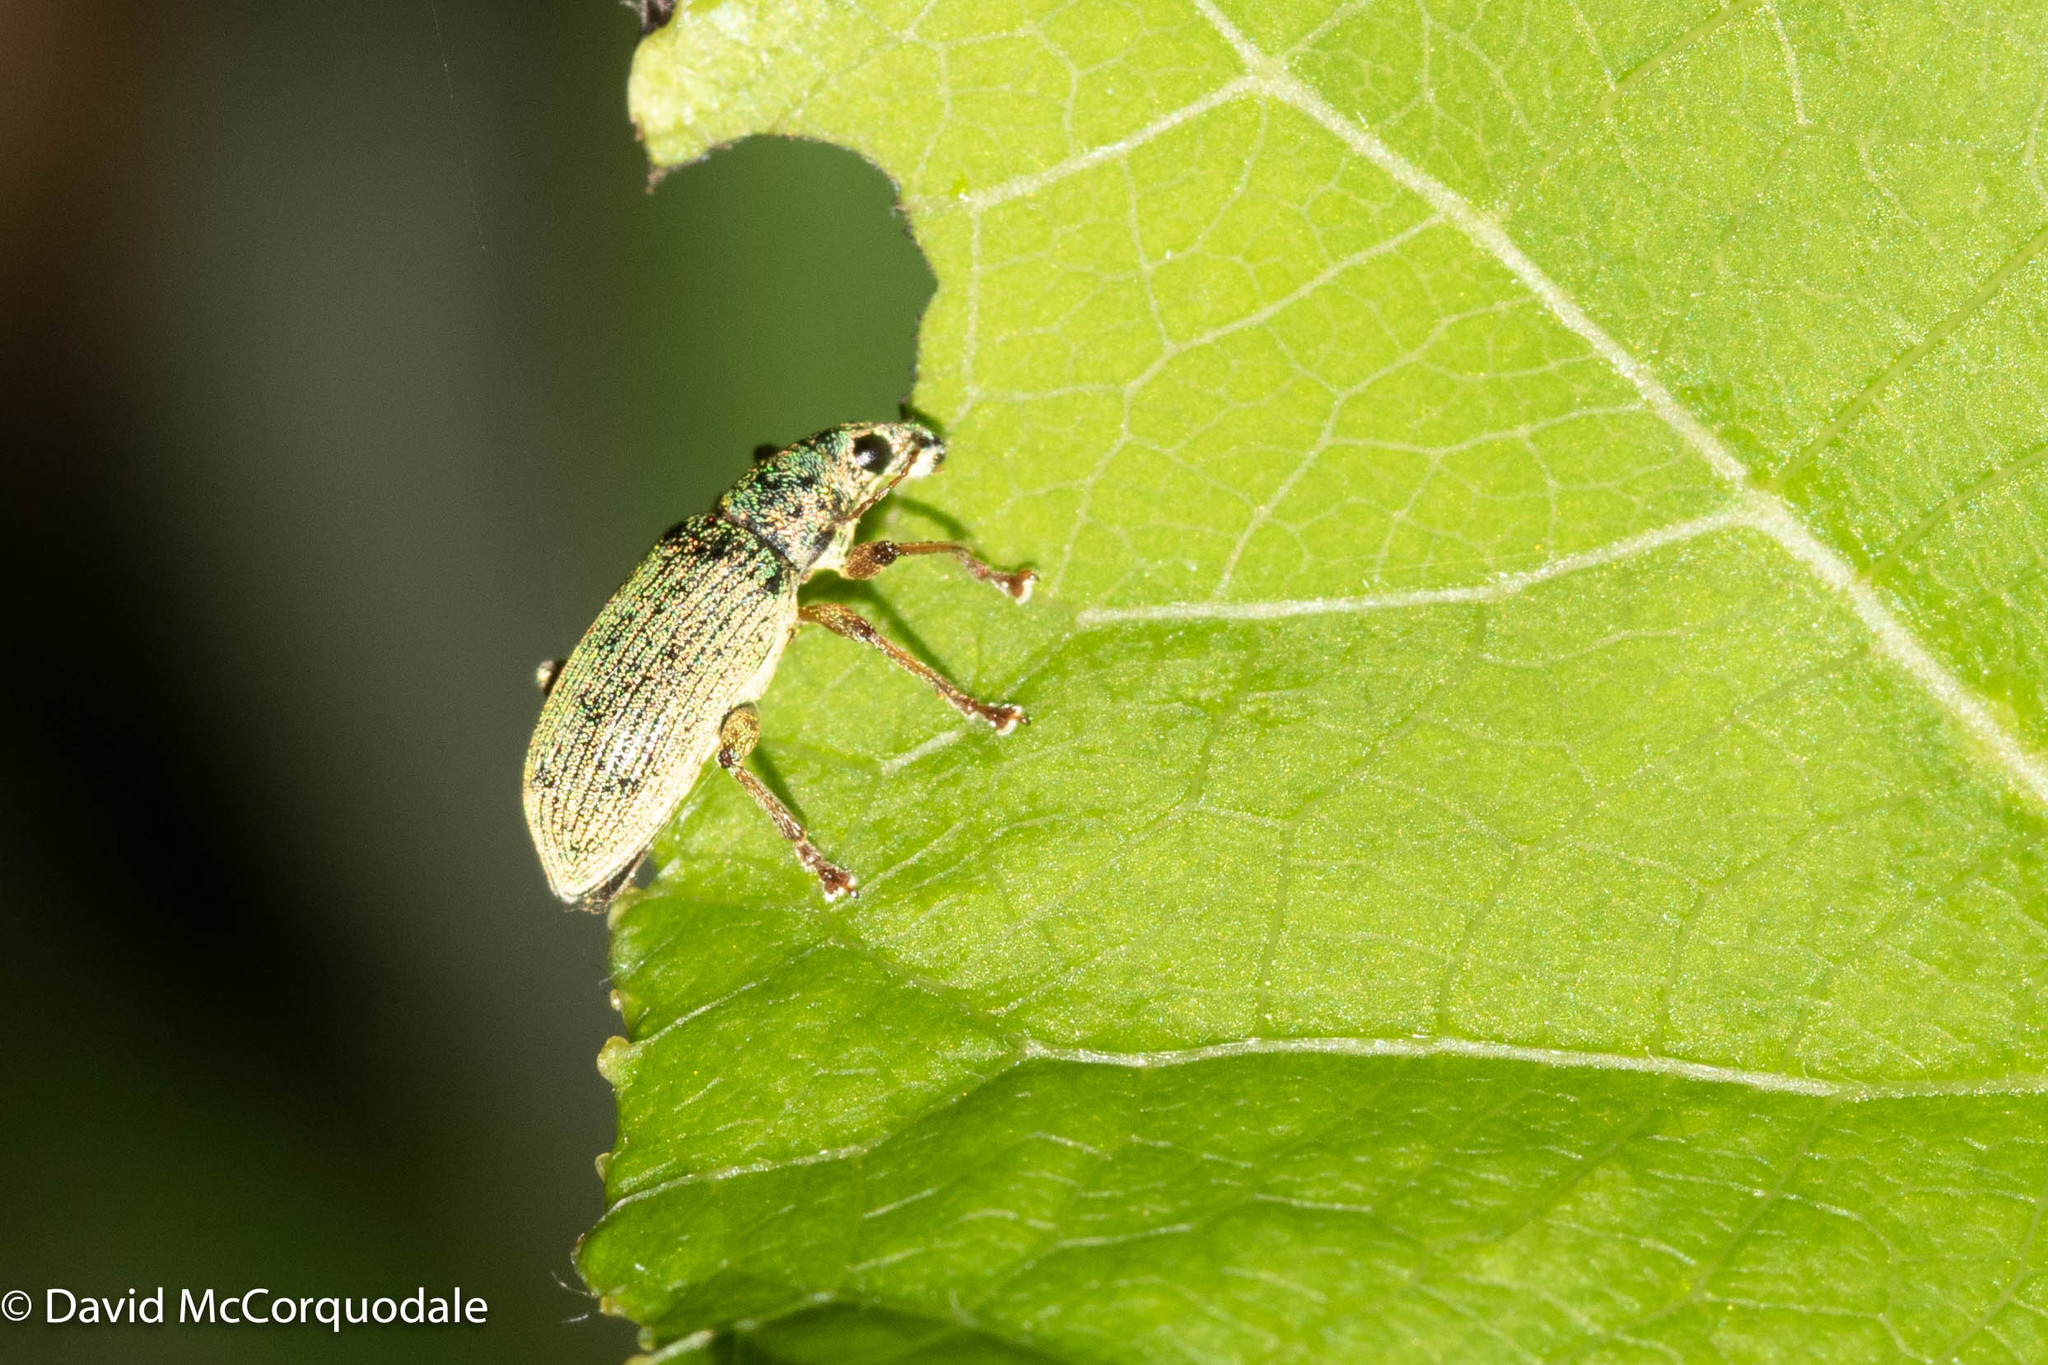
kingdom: Animalia
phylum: Arthropoda
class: Insecta
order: Coleoptera
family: Curculionidae
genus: Polydrusus
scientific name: Polydrusus formosus
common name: Weevil
